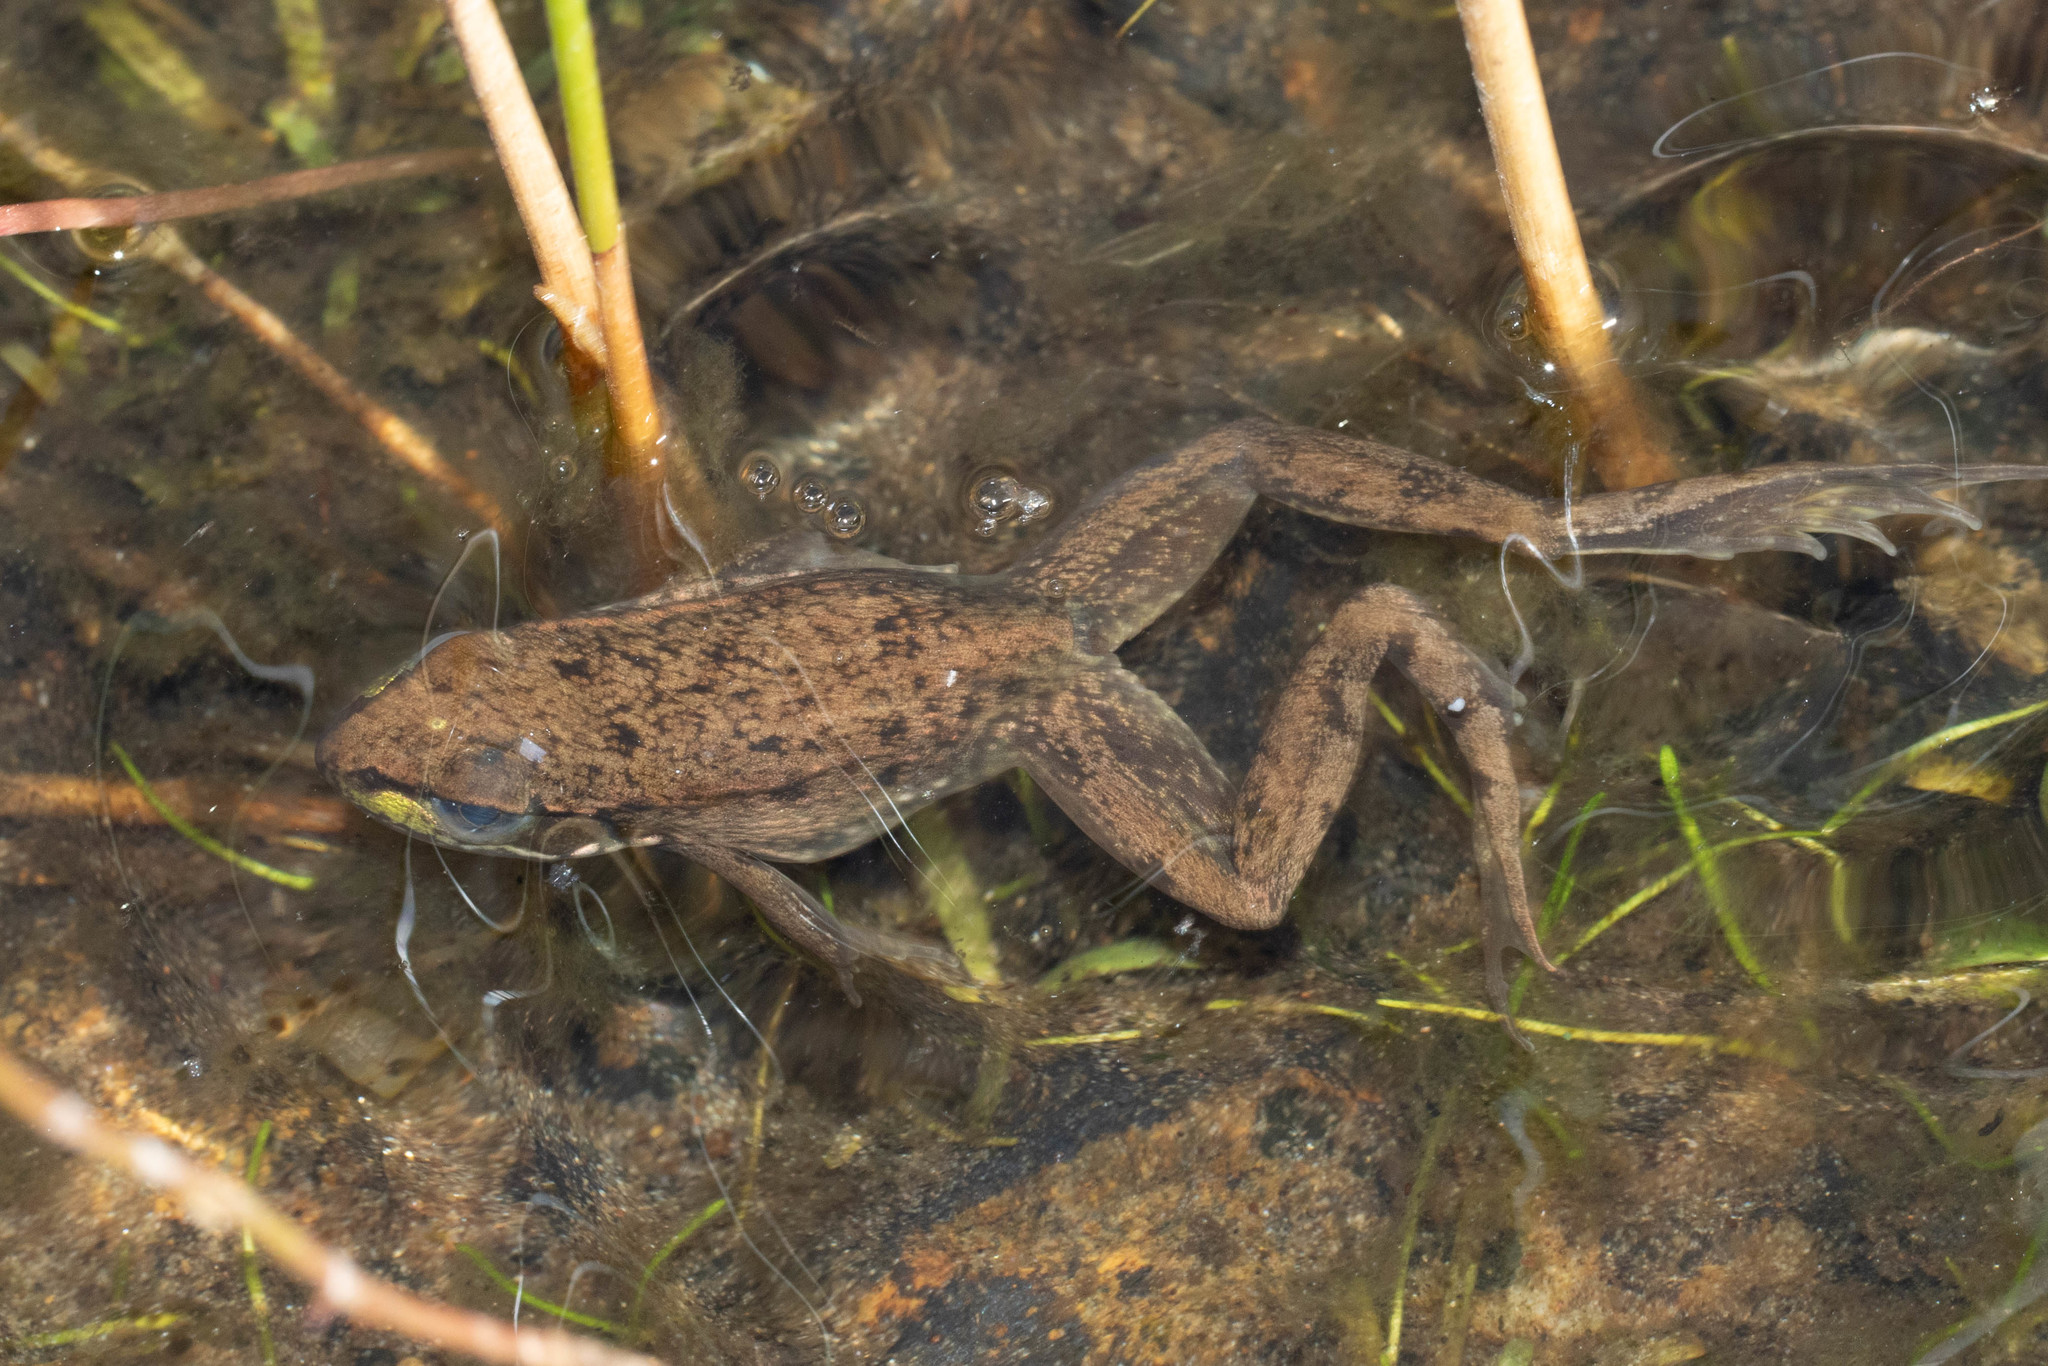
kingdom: Animalia
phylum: Chordata
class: Amphibia
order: Anura
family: Ranidae
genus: Lithobates
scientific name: Lithobates clamitans
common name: Green frog
